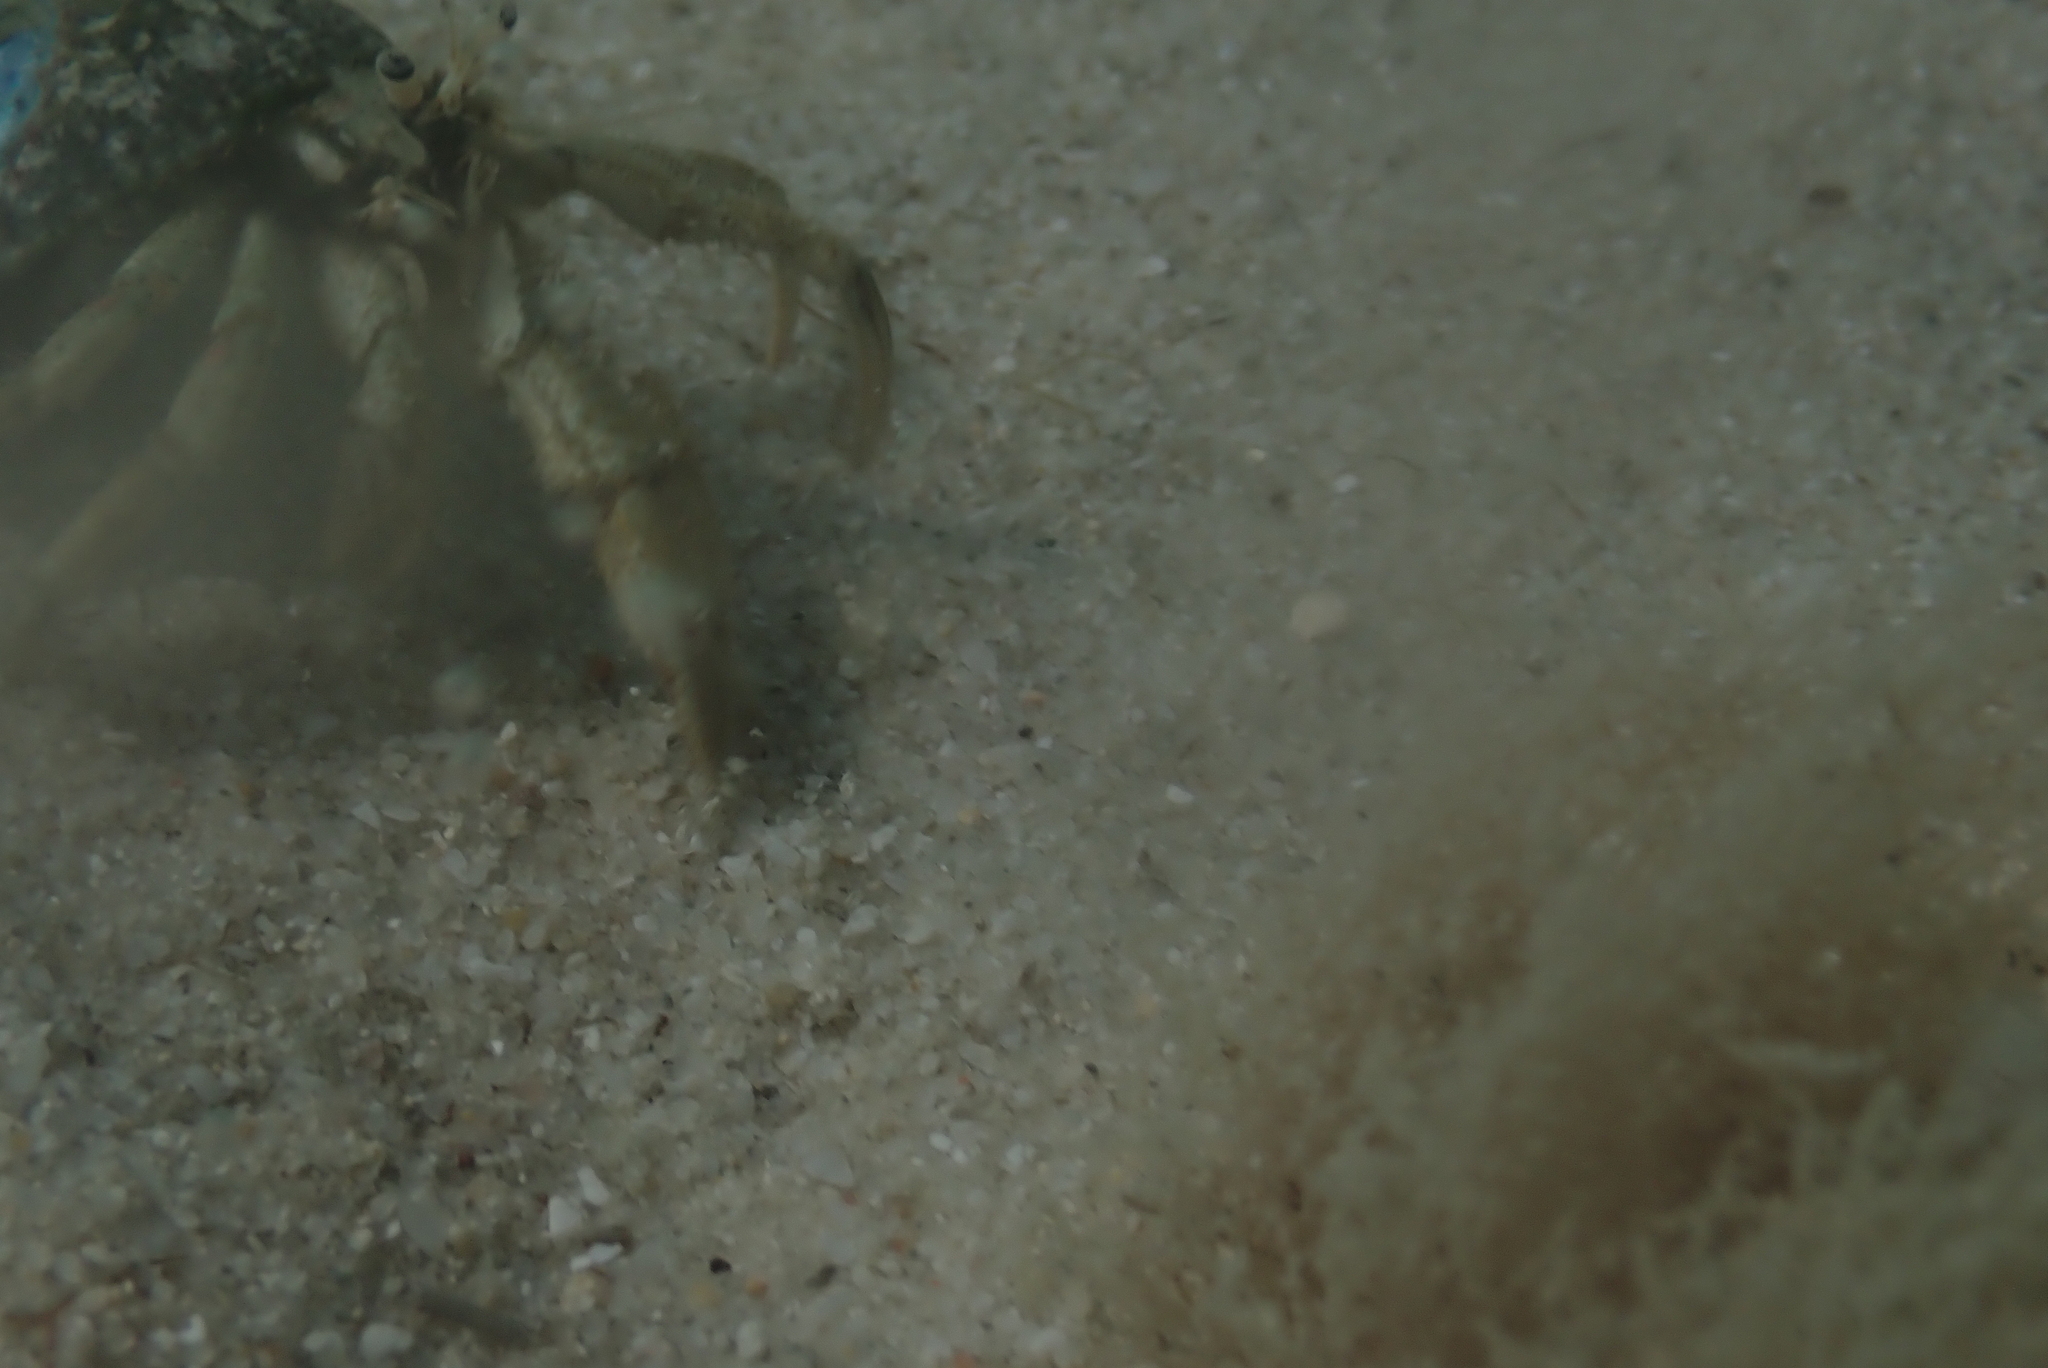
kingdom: Animalia
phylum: Arthropoda
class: Malacostraca
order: Decapoda
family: Diogenidae
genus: Diogenes
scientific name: Diogenes brevirostris
